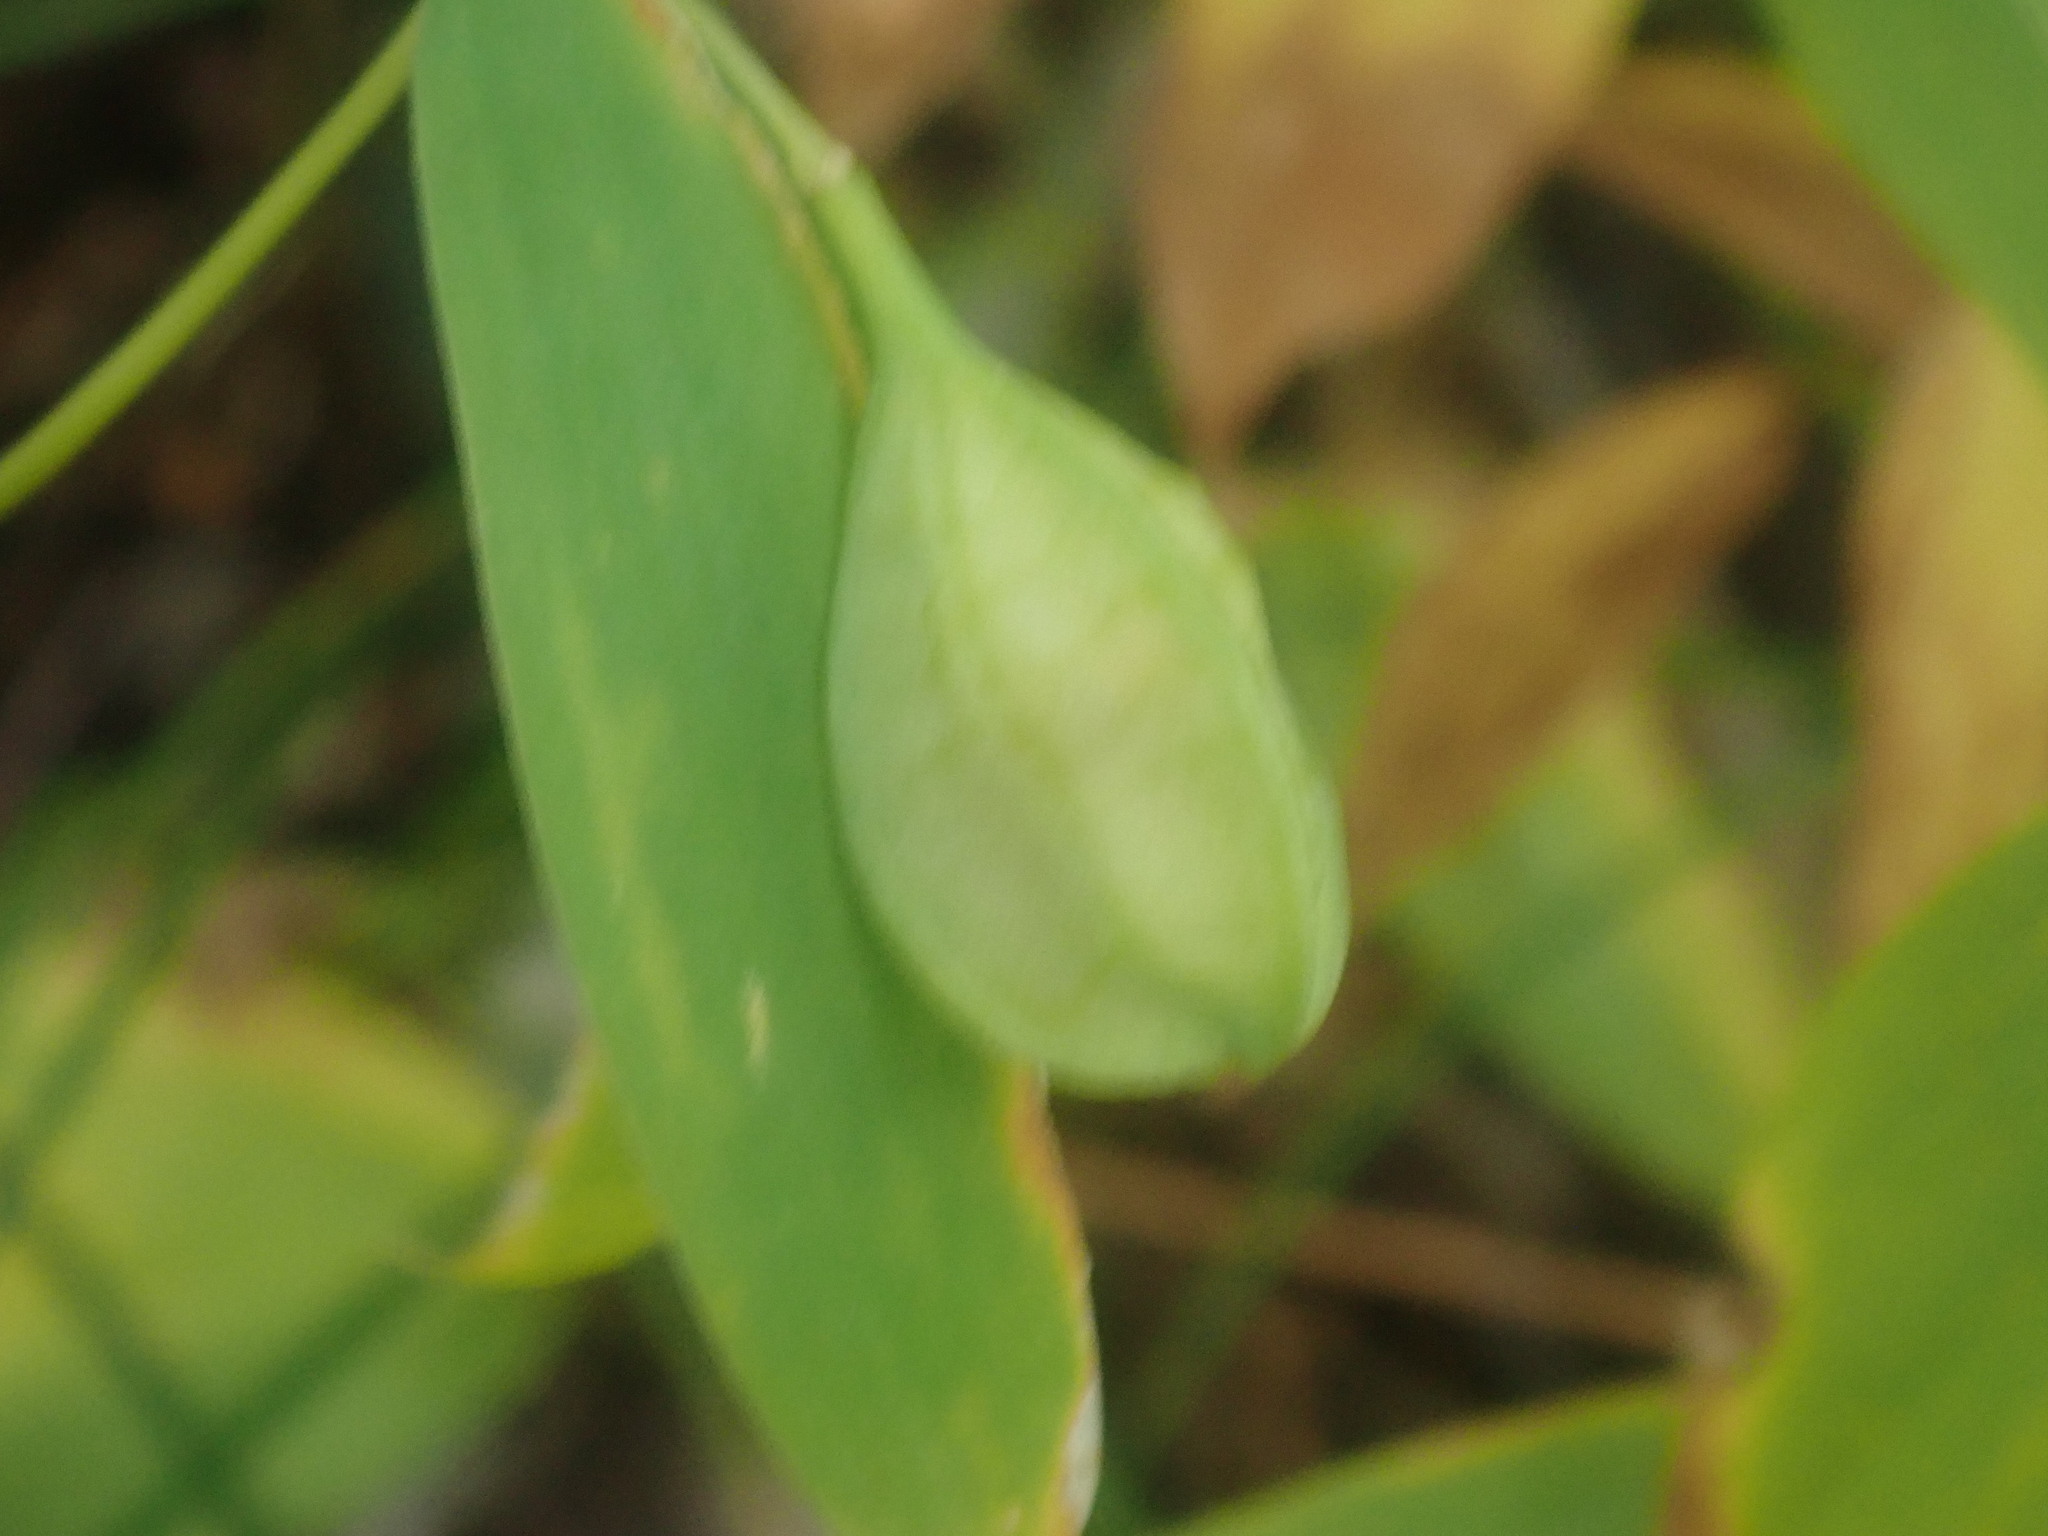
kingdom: Plantae
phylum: Tracheophyta
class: Liliopsida
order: Liliales
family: Colchicaceae
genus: Uvularia
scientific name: Uvularia sessilifolia
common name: Straw-lily
